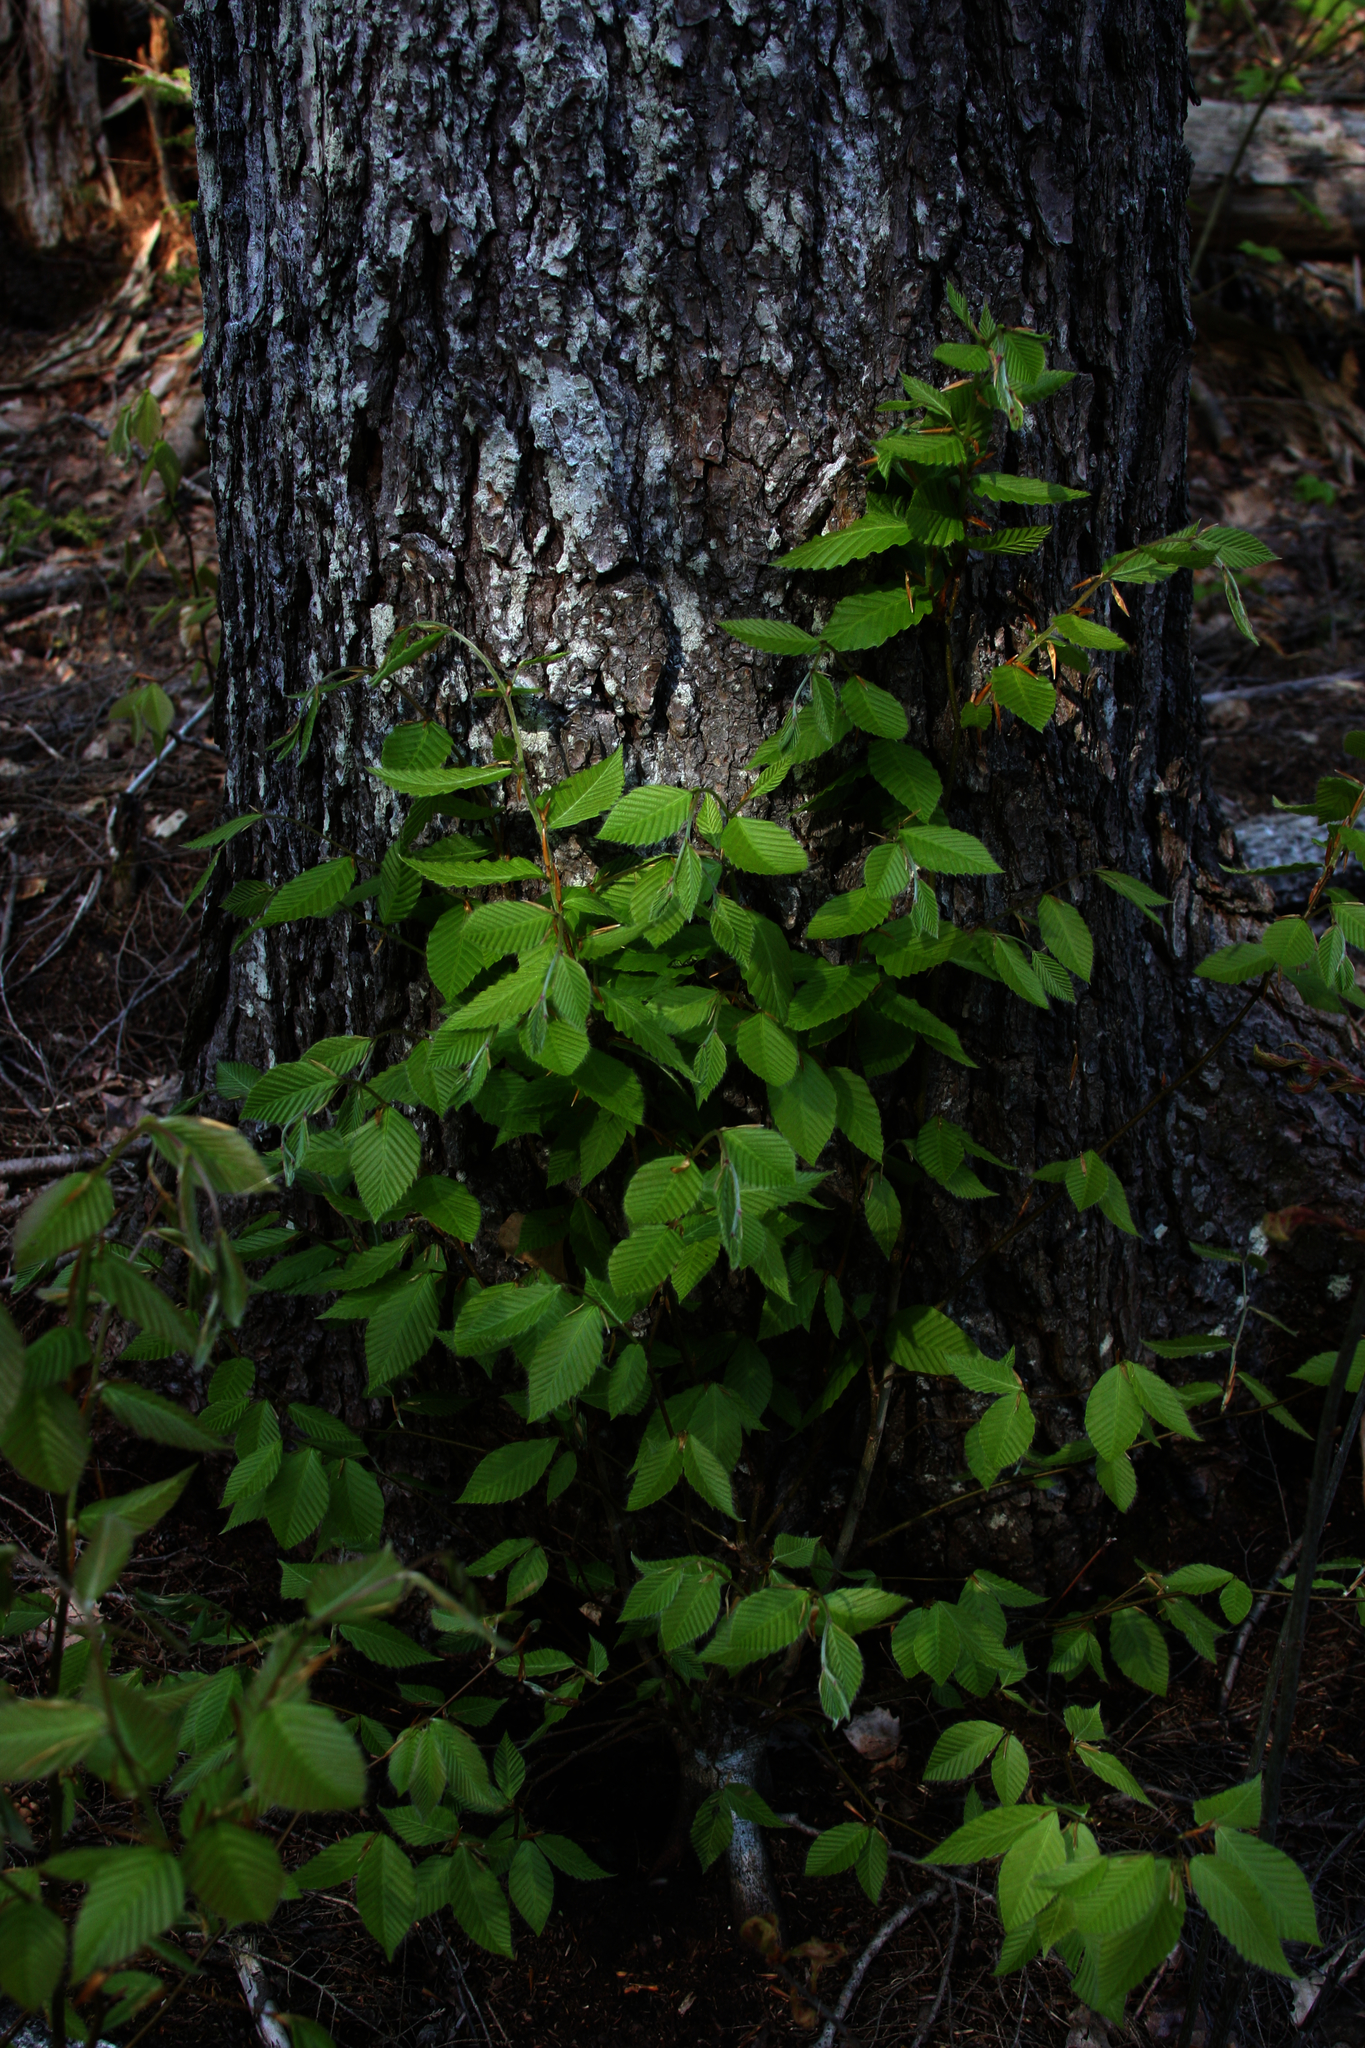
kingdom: Plantae
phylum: Tracheophyta
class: Magnoliopsida
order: Fagales
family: Fagaceae
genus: Fagus
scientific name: Fagus grandifolia
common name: American beech
